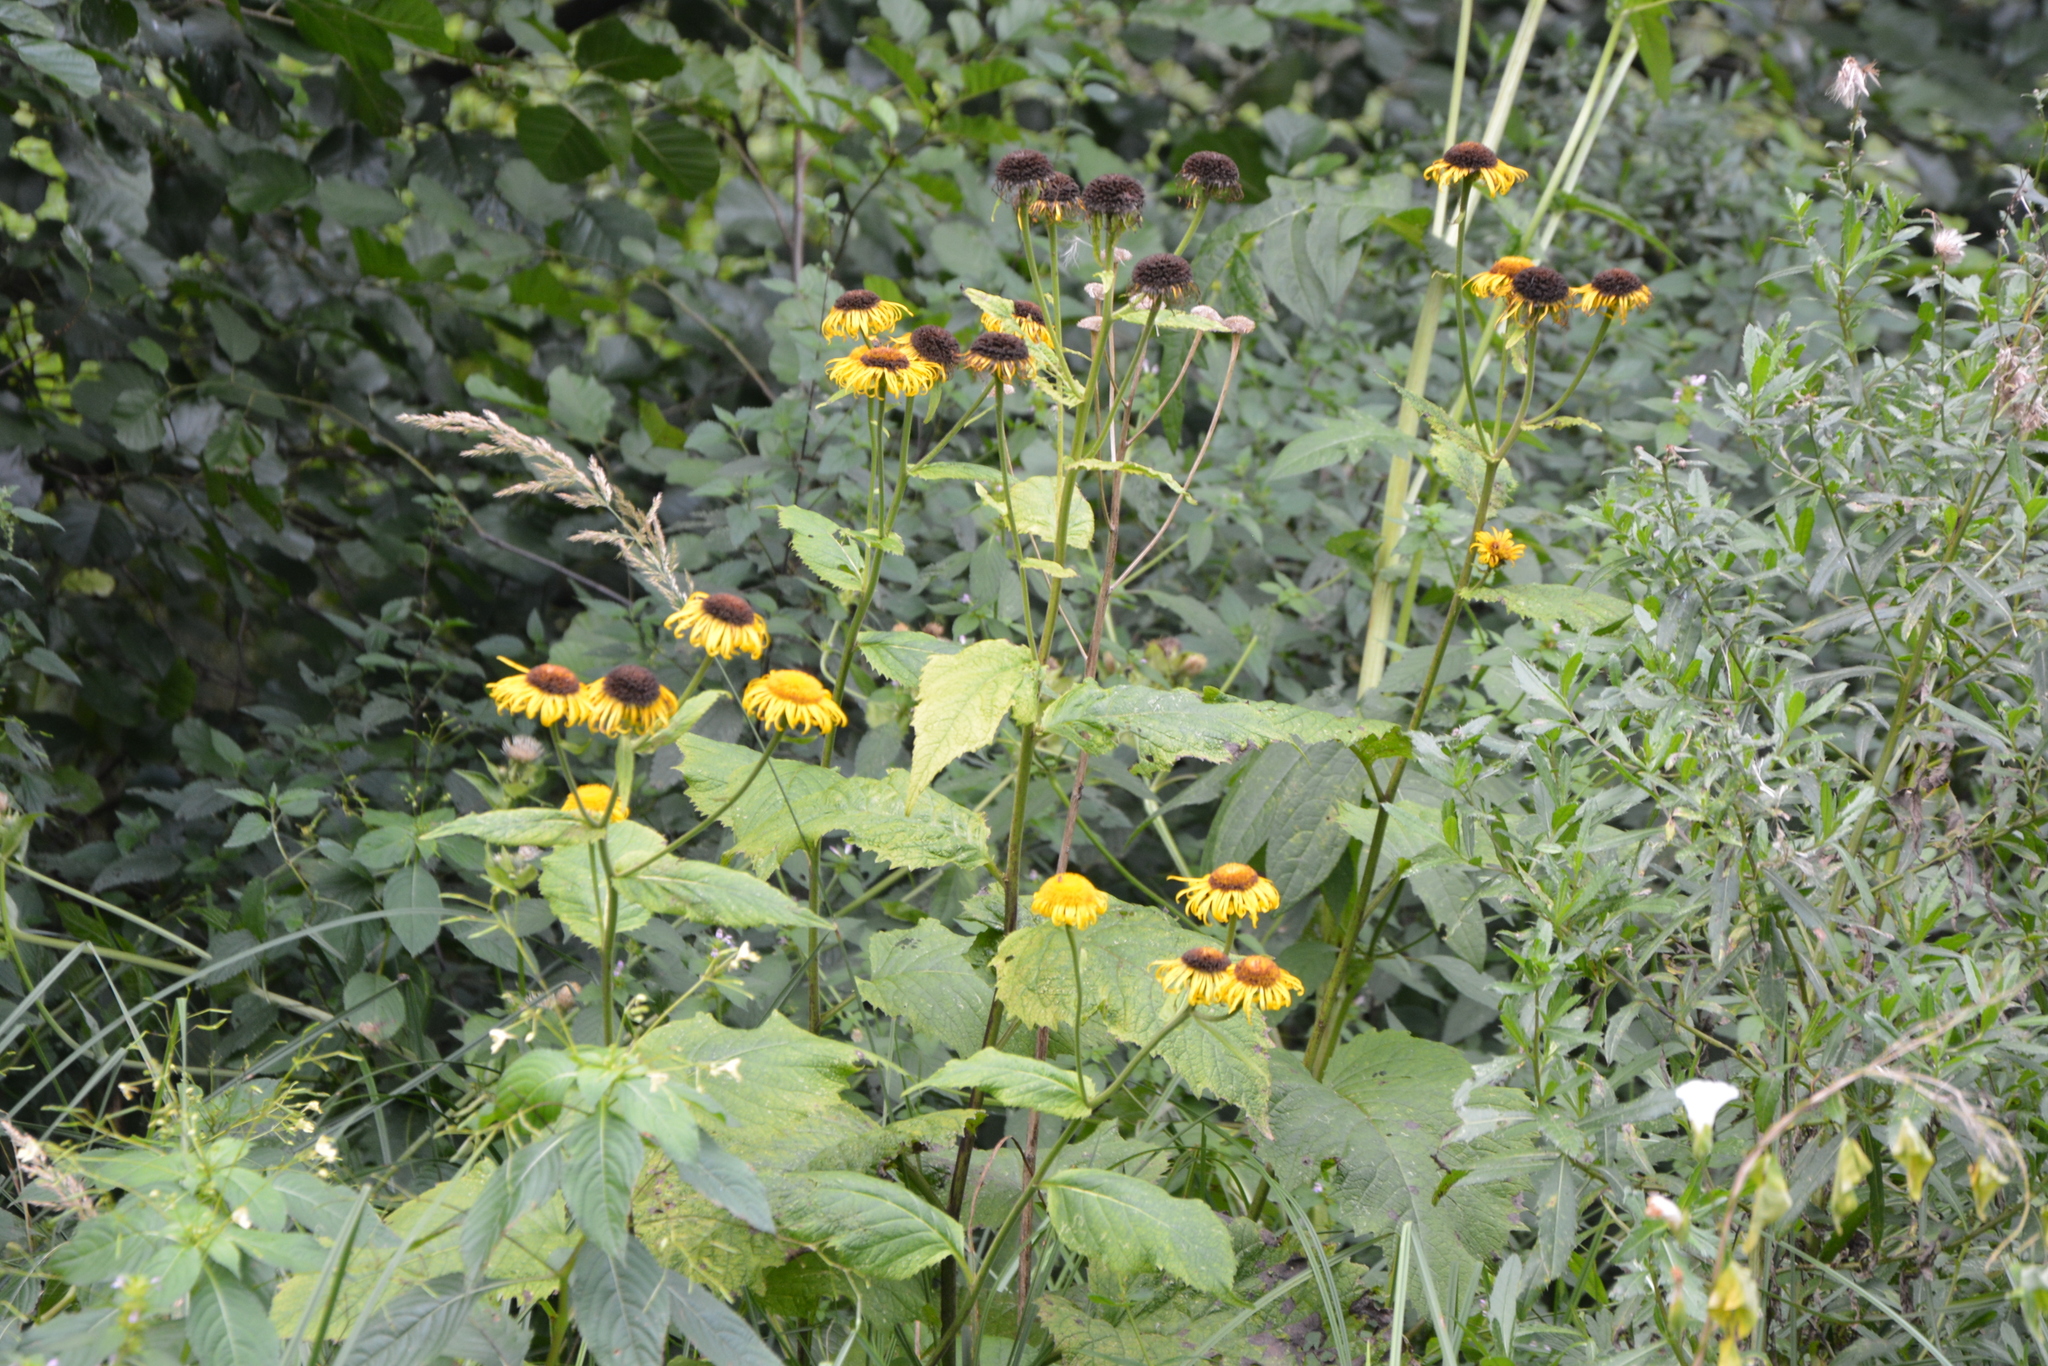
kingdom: Plantae
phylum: Tracheophyta
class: Magnoliopsida
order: Asterales
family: Asteraceae
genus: Telekia
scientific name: Telekia speciosa
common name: Yellow oxeye
